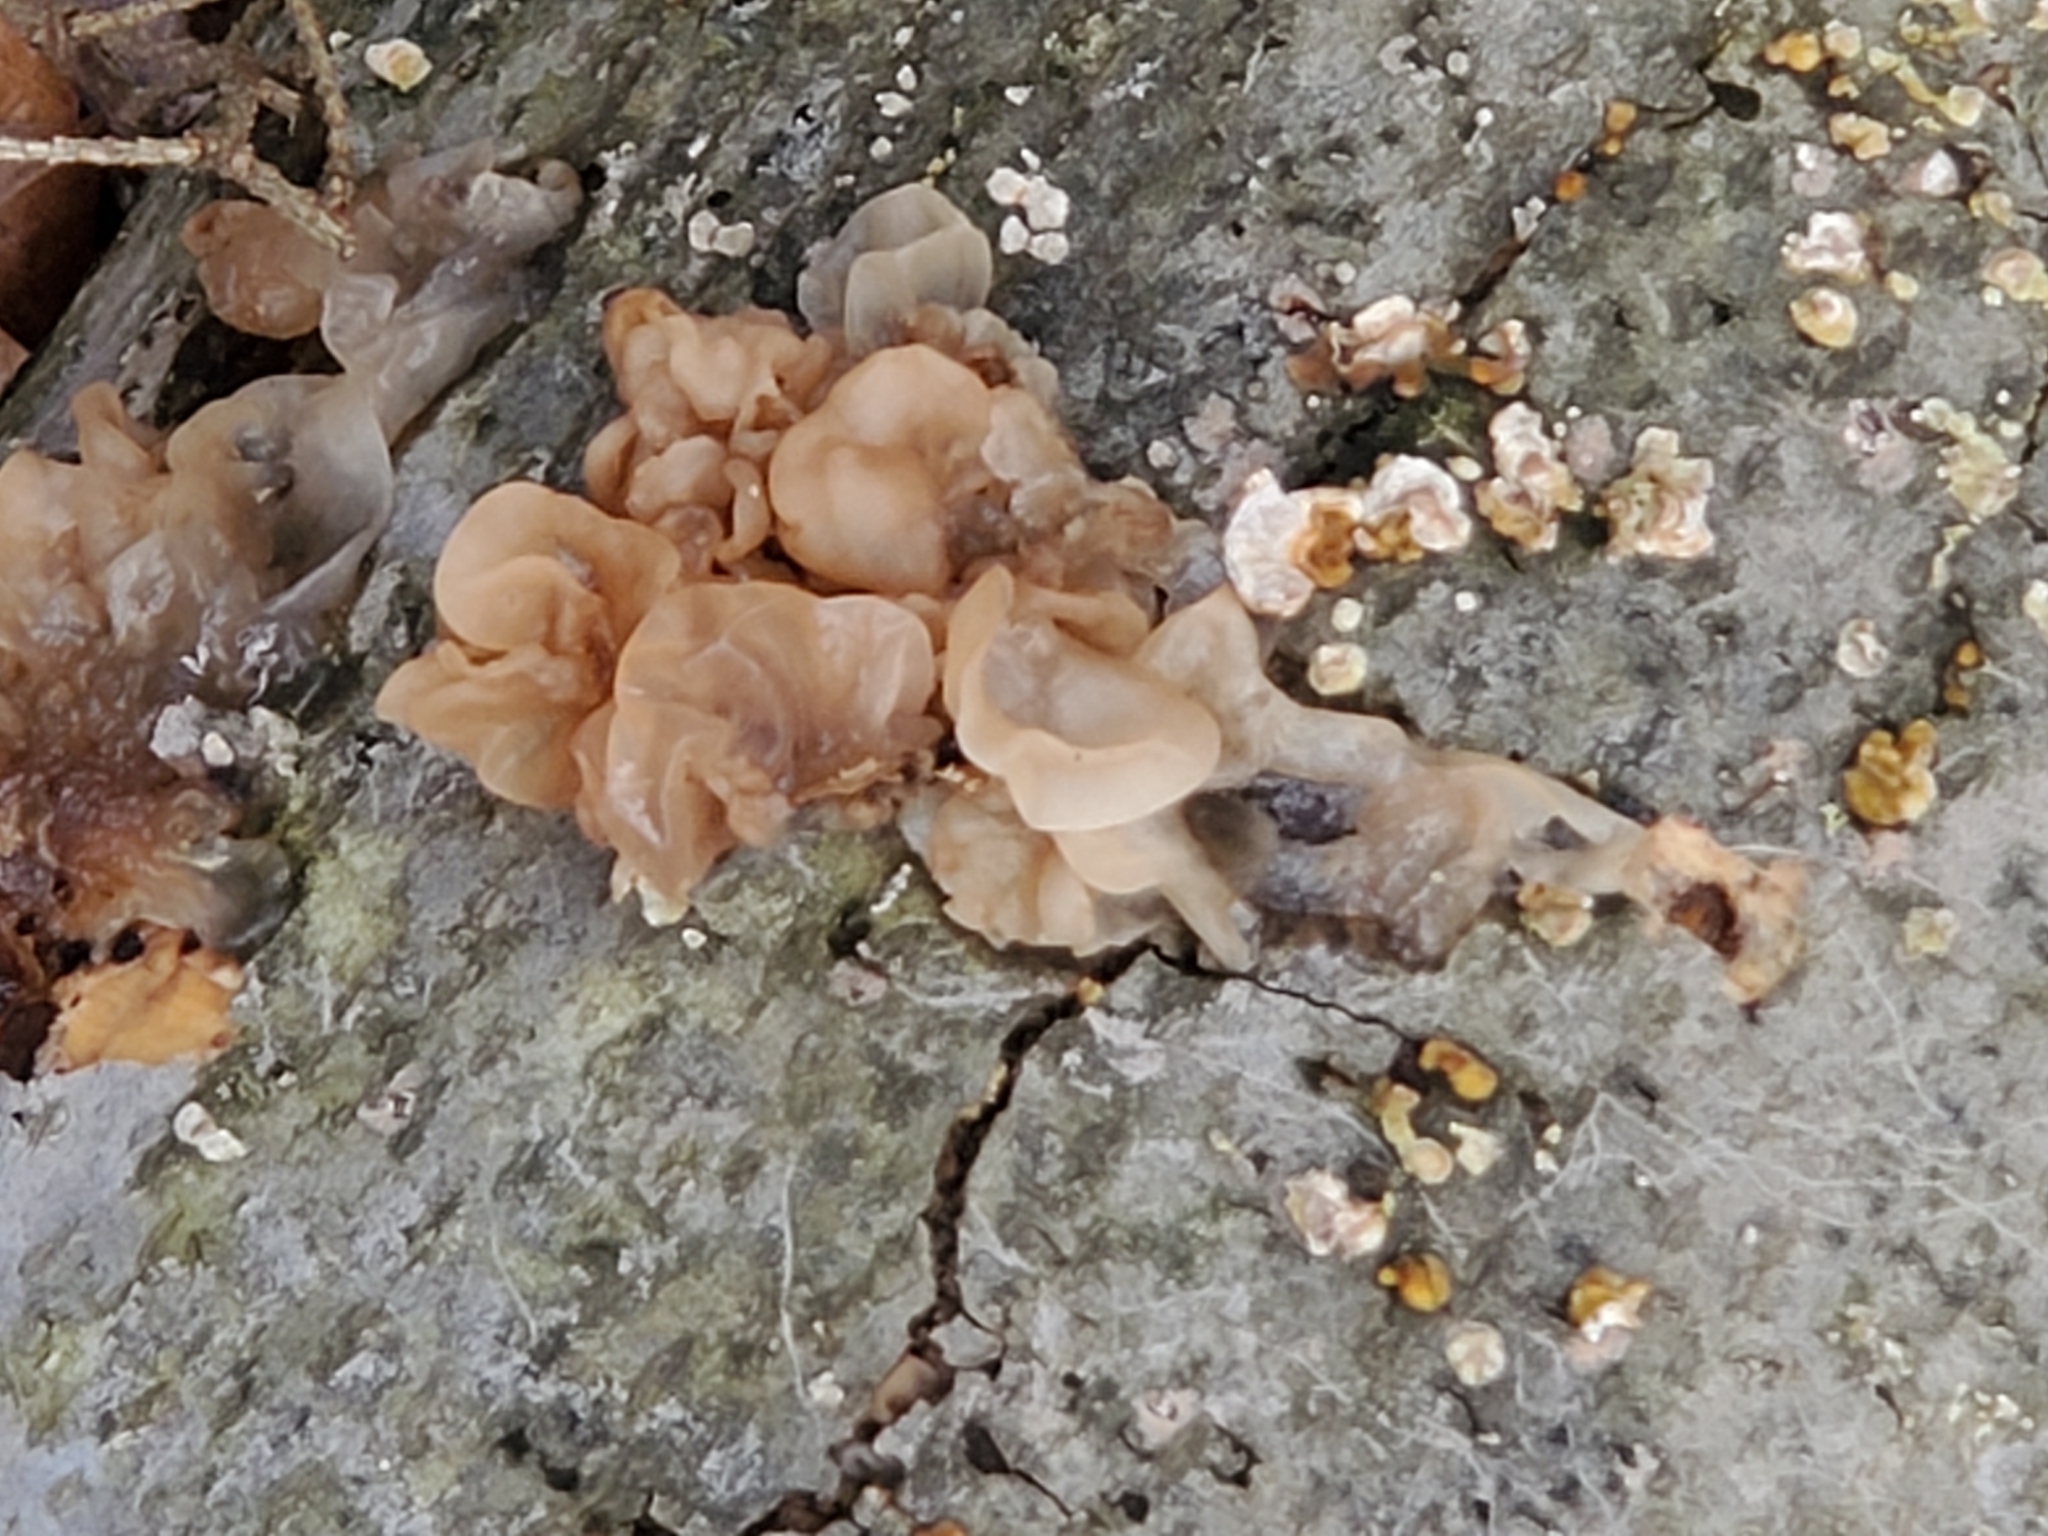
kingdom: Fungi
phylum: Basidiomycota
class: Agaricomycetes
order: Auriculariales
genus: Ductifera
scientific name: Ductifera pululahuana
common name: White jelly fungus
